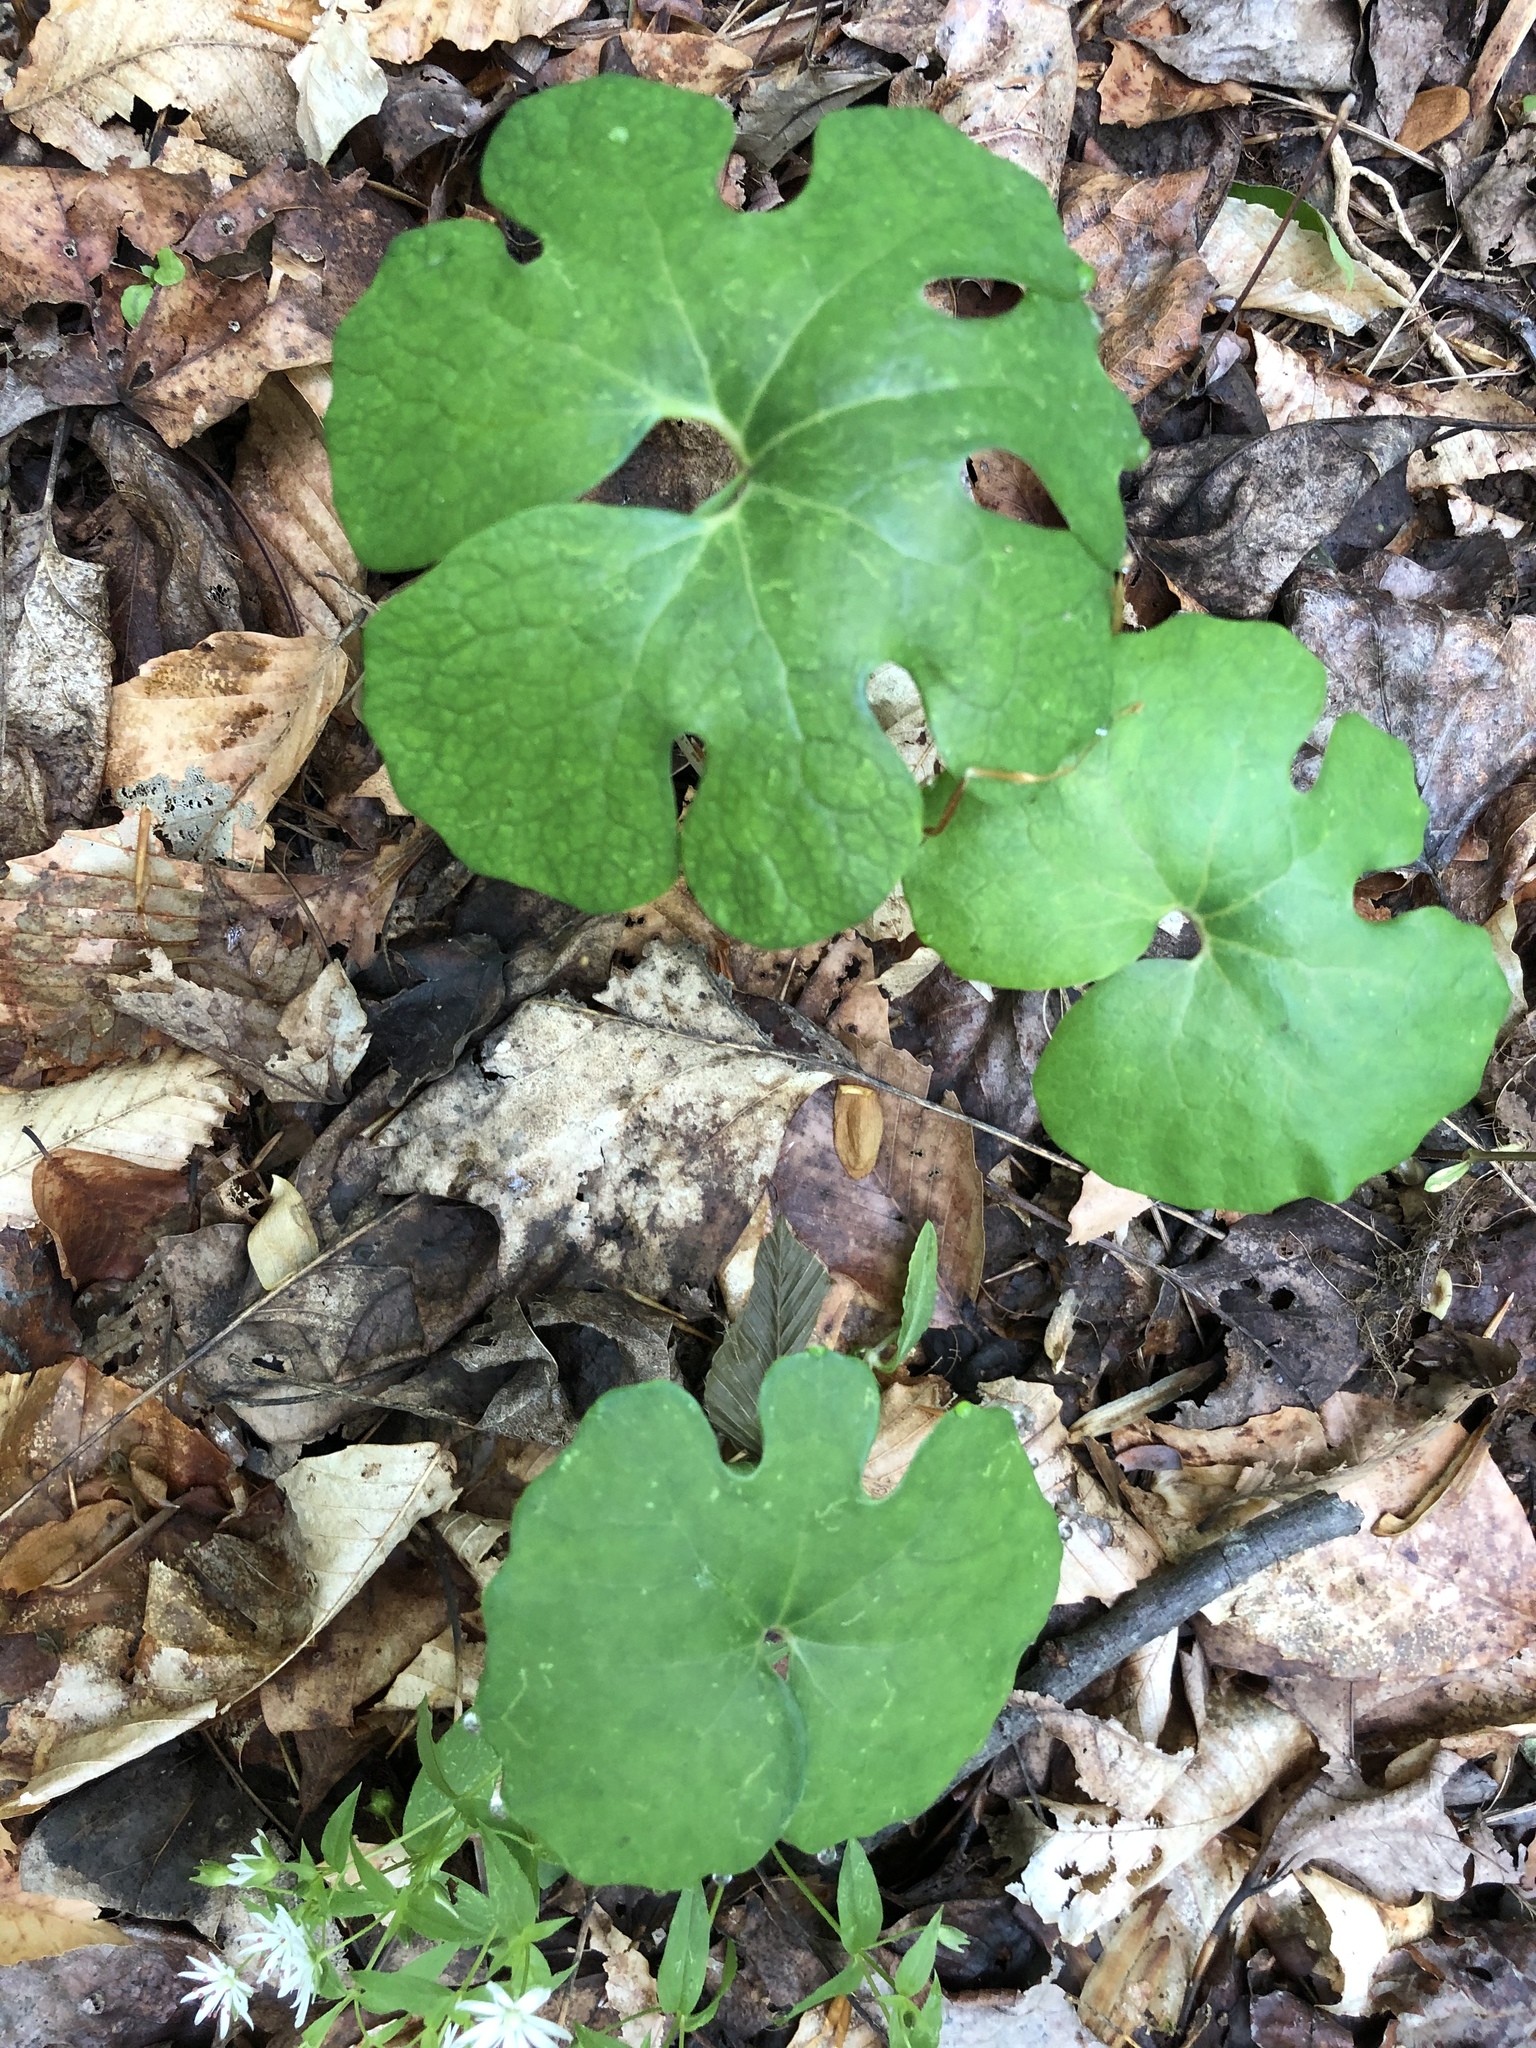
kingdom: Plantae
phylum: Tracheophyta
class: Magnoliopsida
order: Ranunculales
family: Papaveraceae
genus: Sanguinaria
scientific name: Sanguinaria canadensis
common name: Bloodroot
